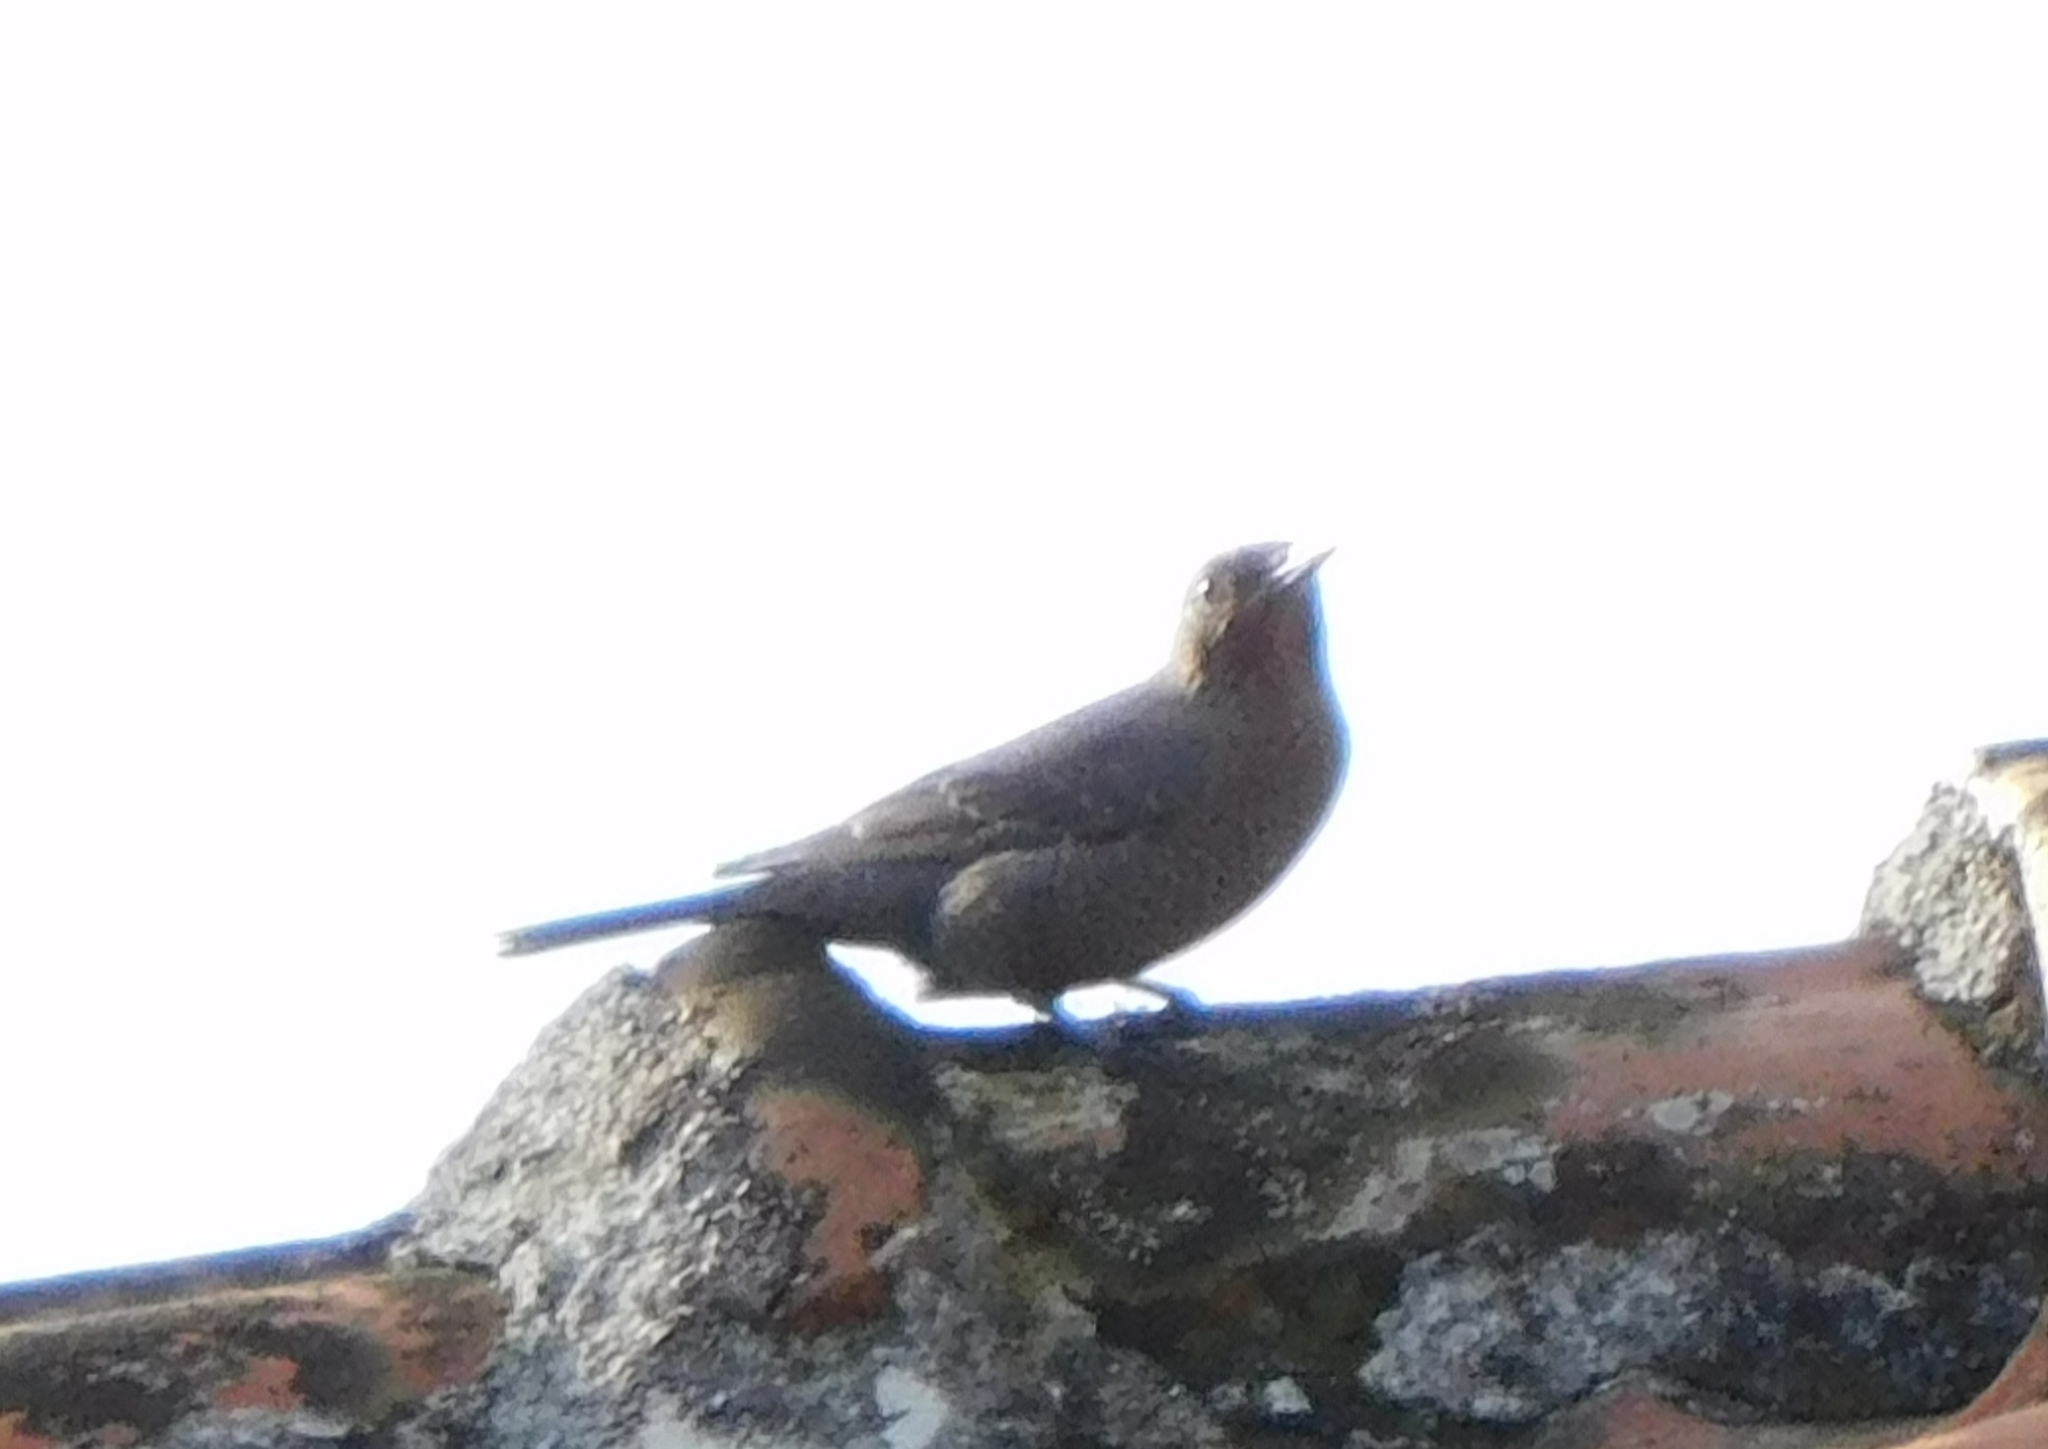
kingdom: Animalia
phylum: Chordata
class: Aves
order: Passeriformes
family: Muscicapidae
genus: Monticola
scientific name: Monticola solitarius
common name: Blue rock thrush
